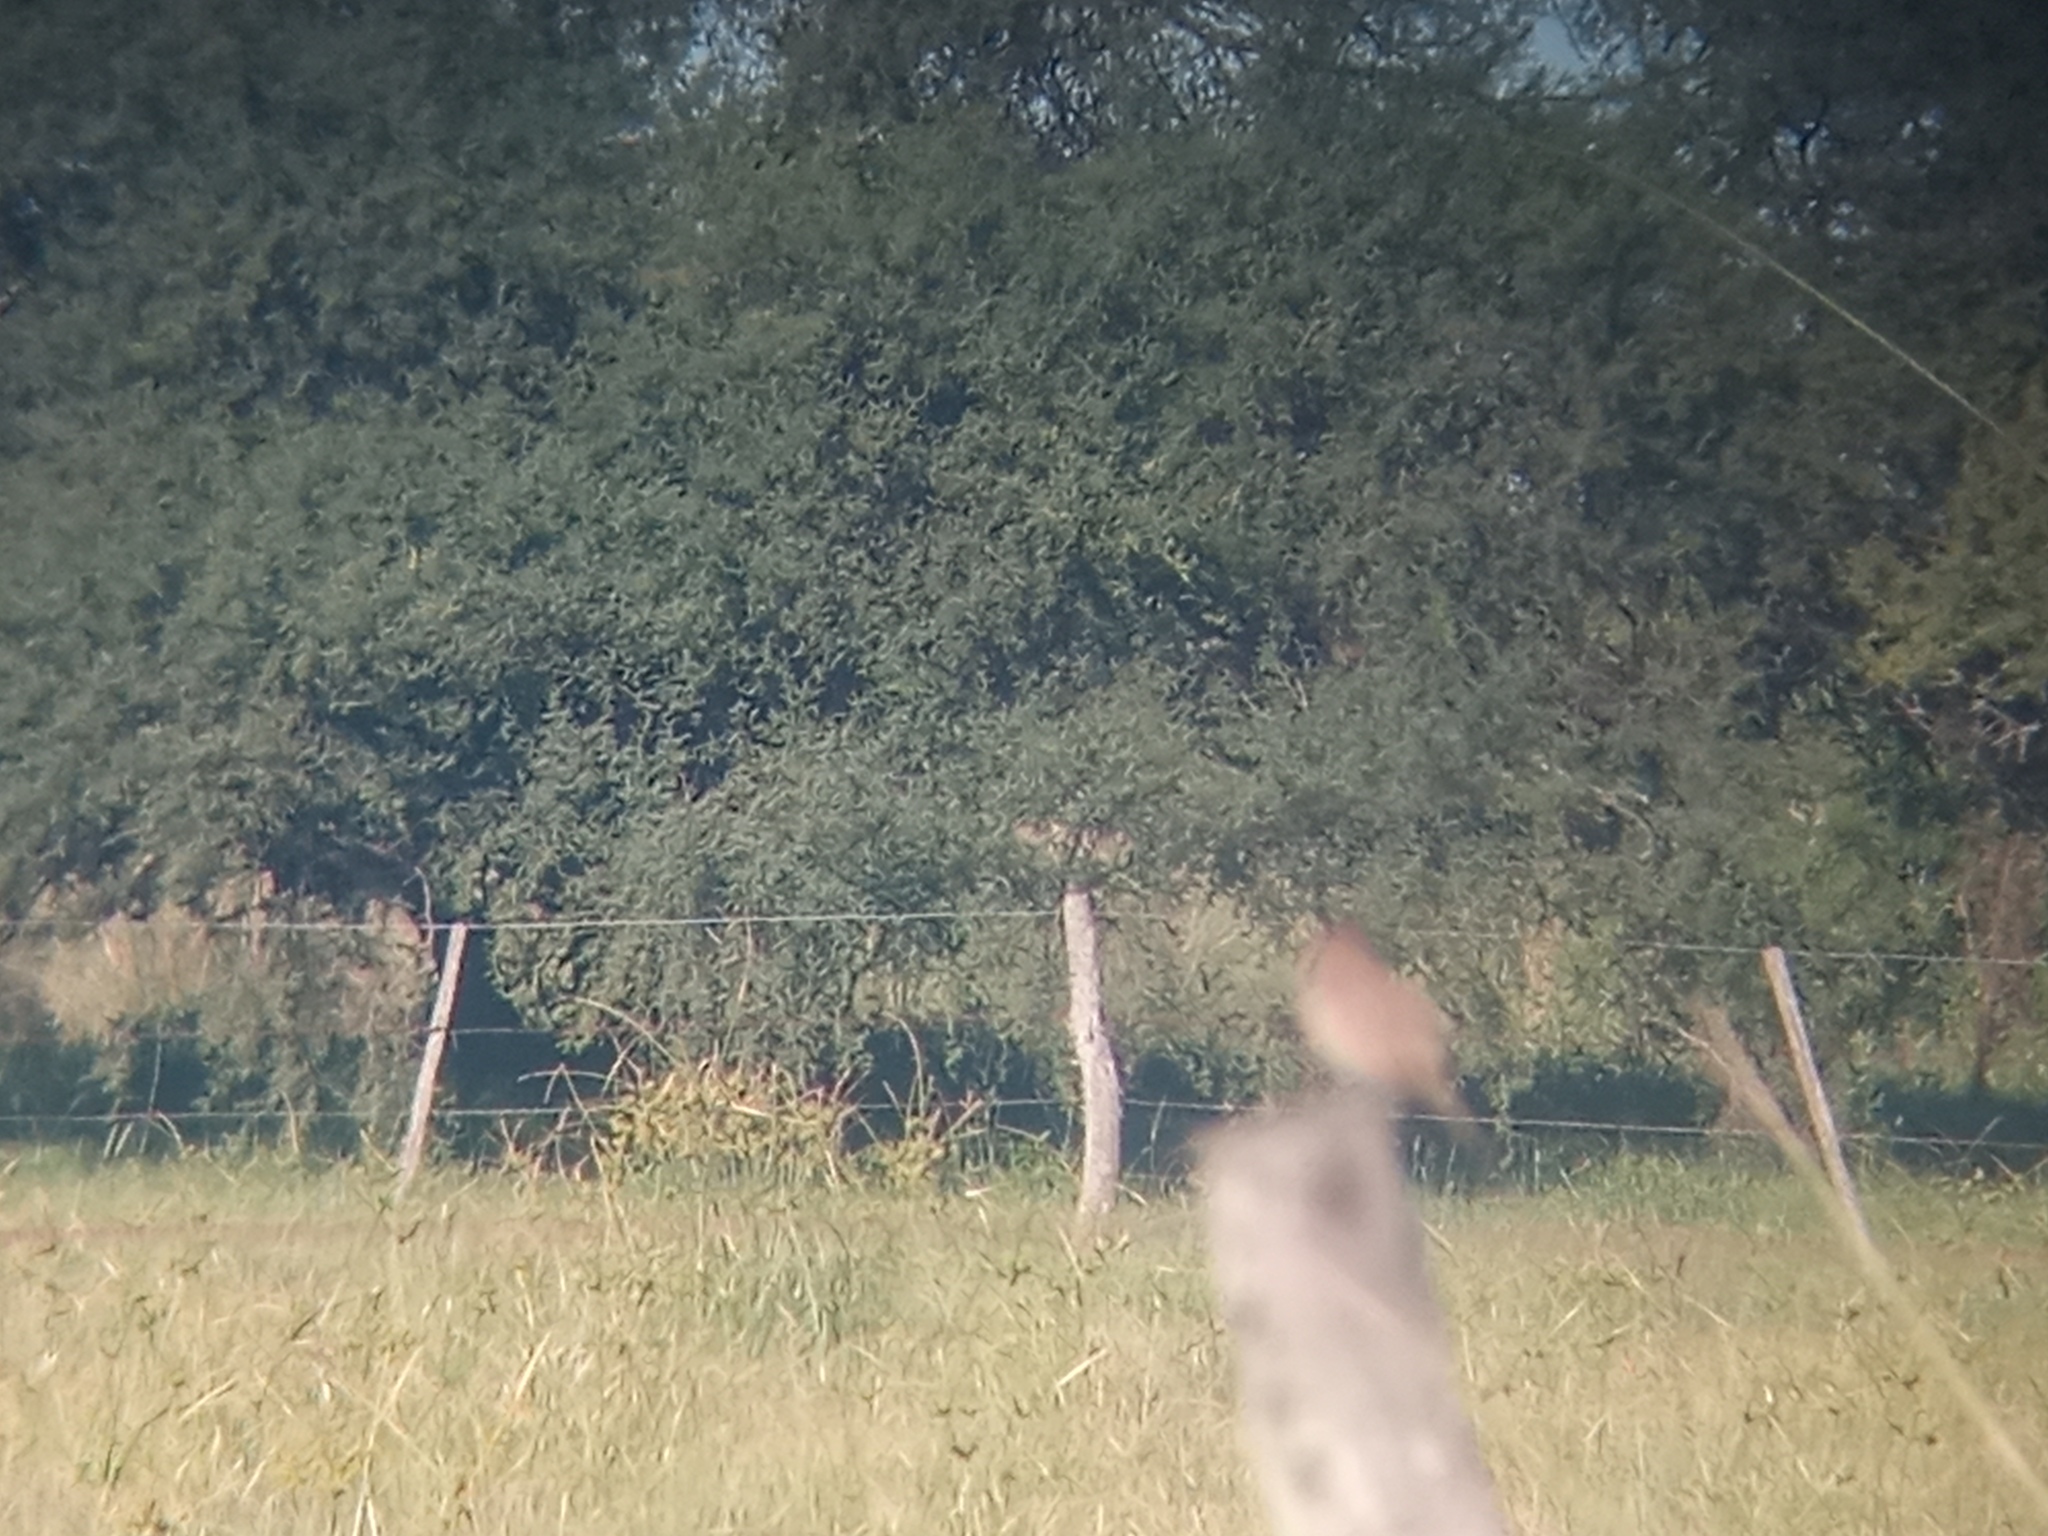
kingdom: Animalia
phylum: Chordata
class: Aves
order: Passeriformes
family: Furnariidae
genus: Anumbius
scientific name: Anumbius annumbi
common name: Firewood-gatherer
